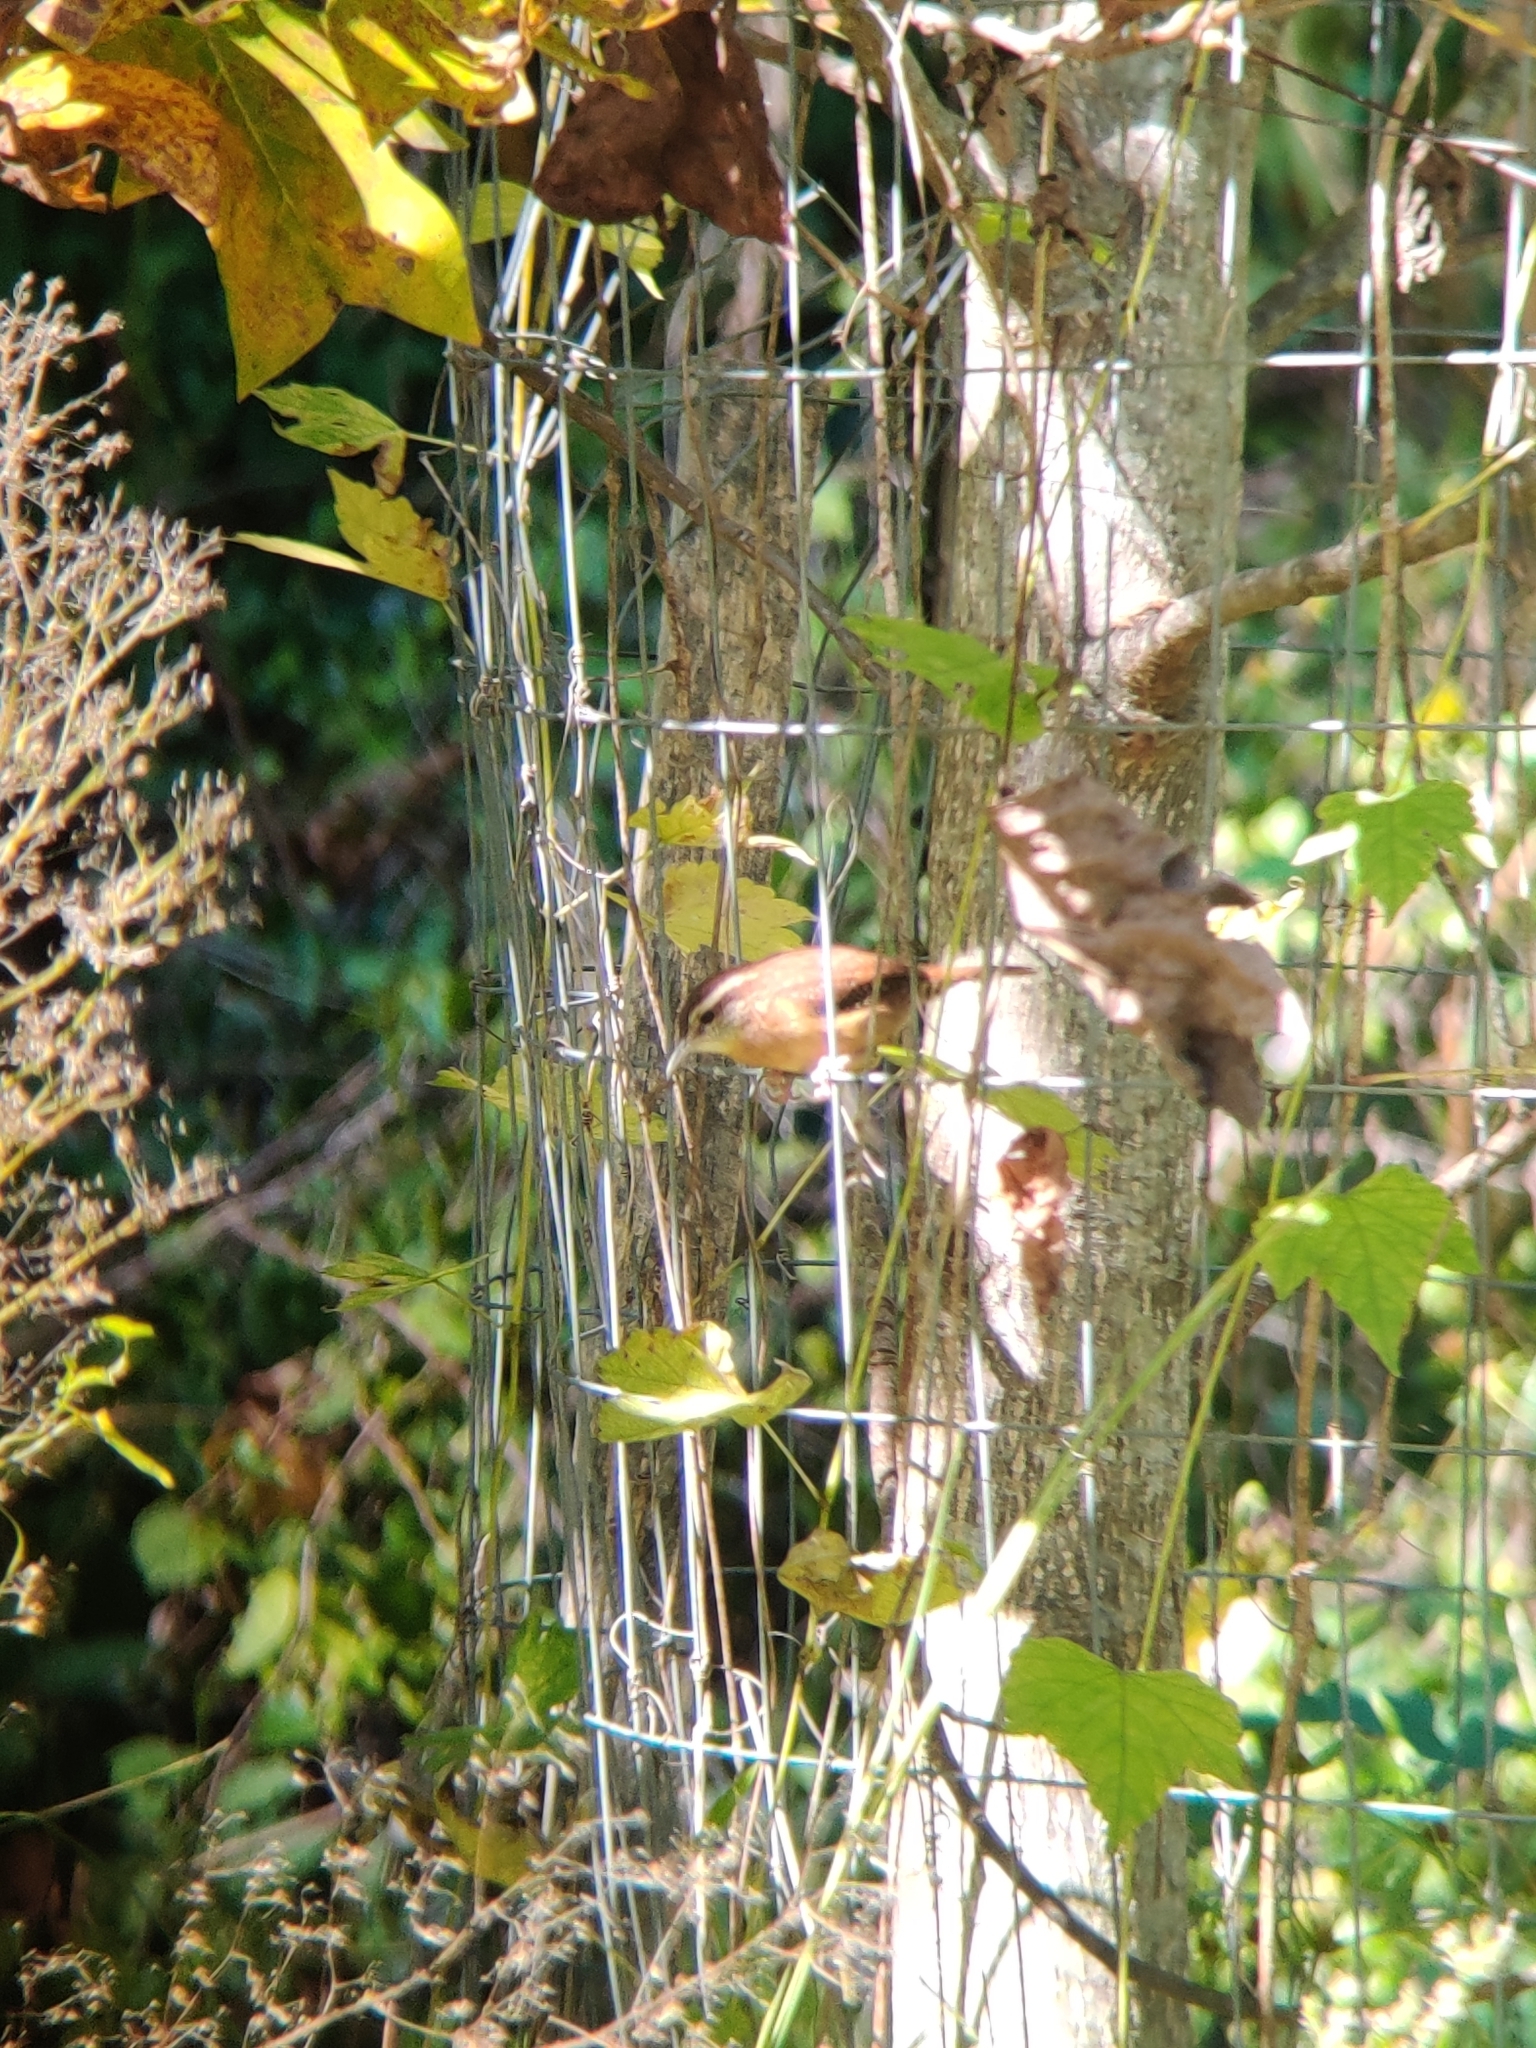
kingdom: Animalia
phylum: Chordata
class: Aves
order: Passeriformes
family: Troglodytidae
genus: Thryothorus
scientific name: Thryothorus ludovicianus
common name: Carolina wren
